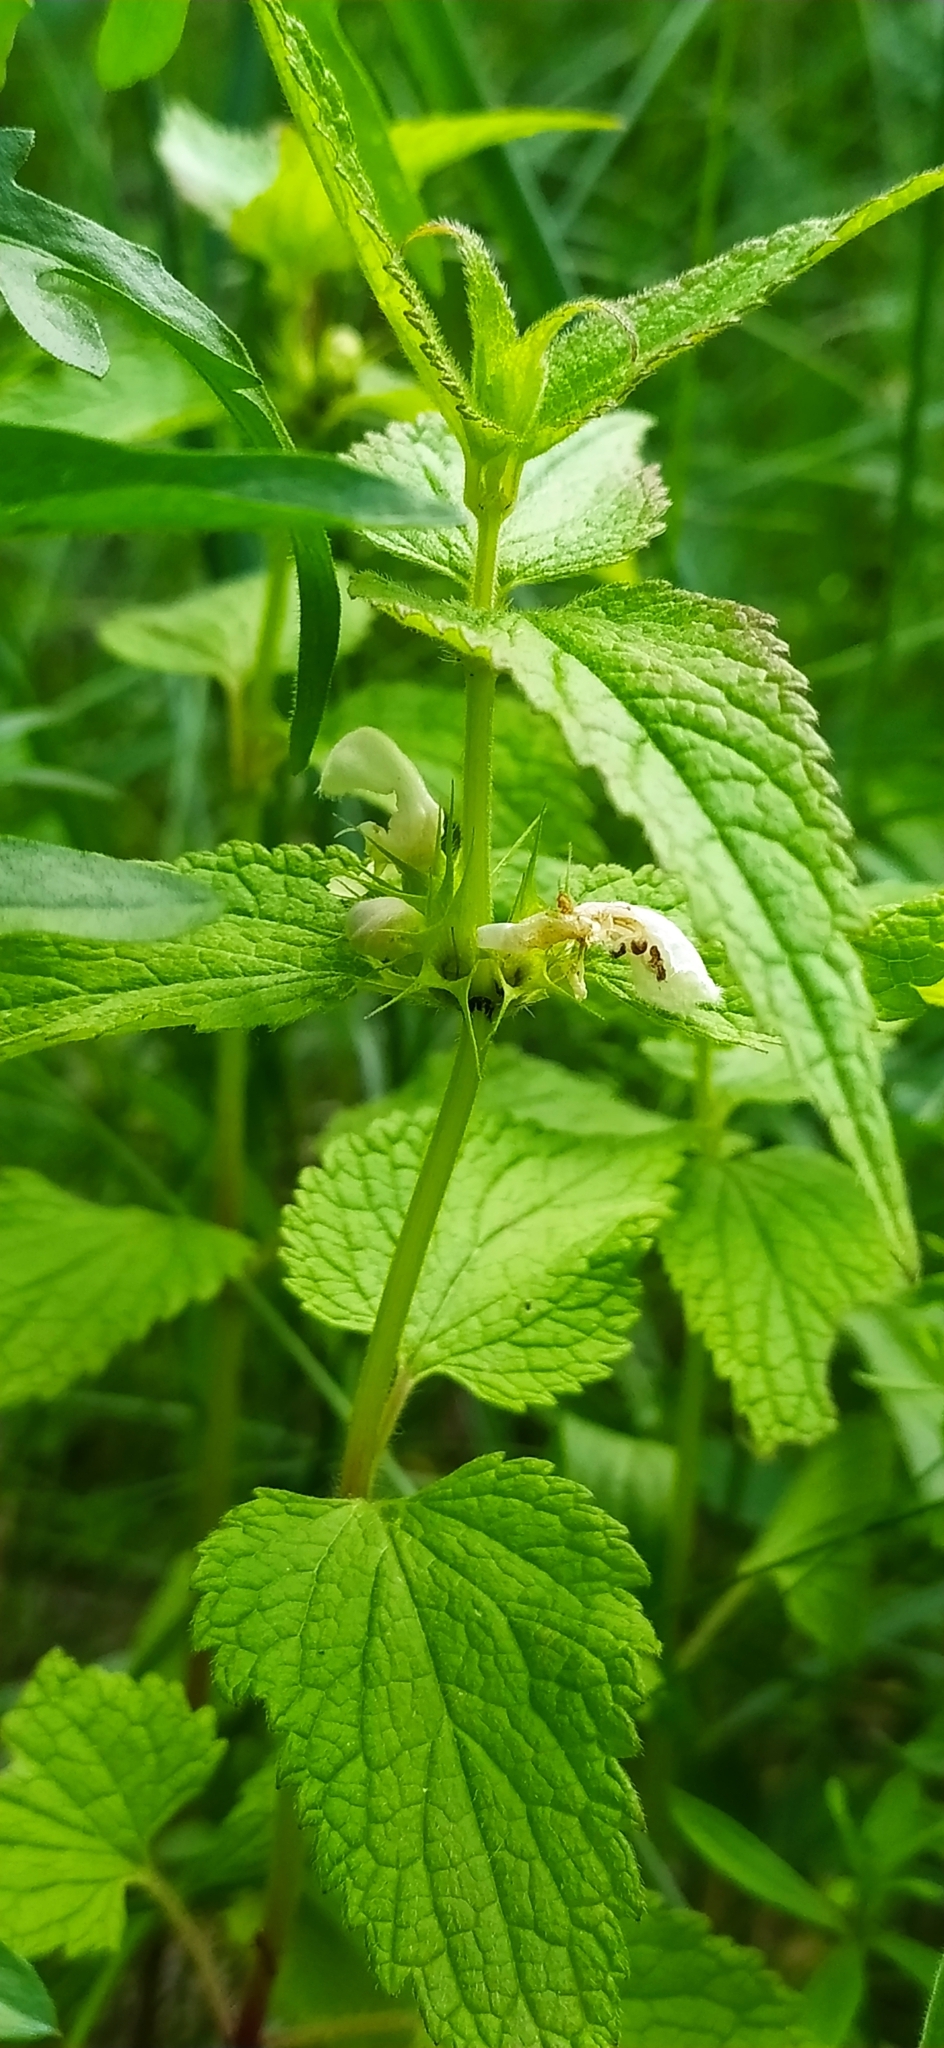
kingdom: Plantae
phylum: Tracheophyta
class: Magnoliopsida
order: Lamiales
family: Lamiaceae
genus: Lamium
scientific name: Lamium album
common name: White dead-nettle
